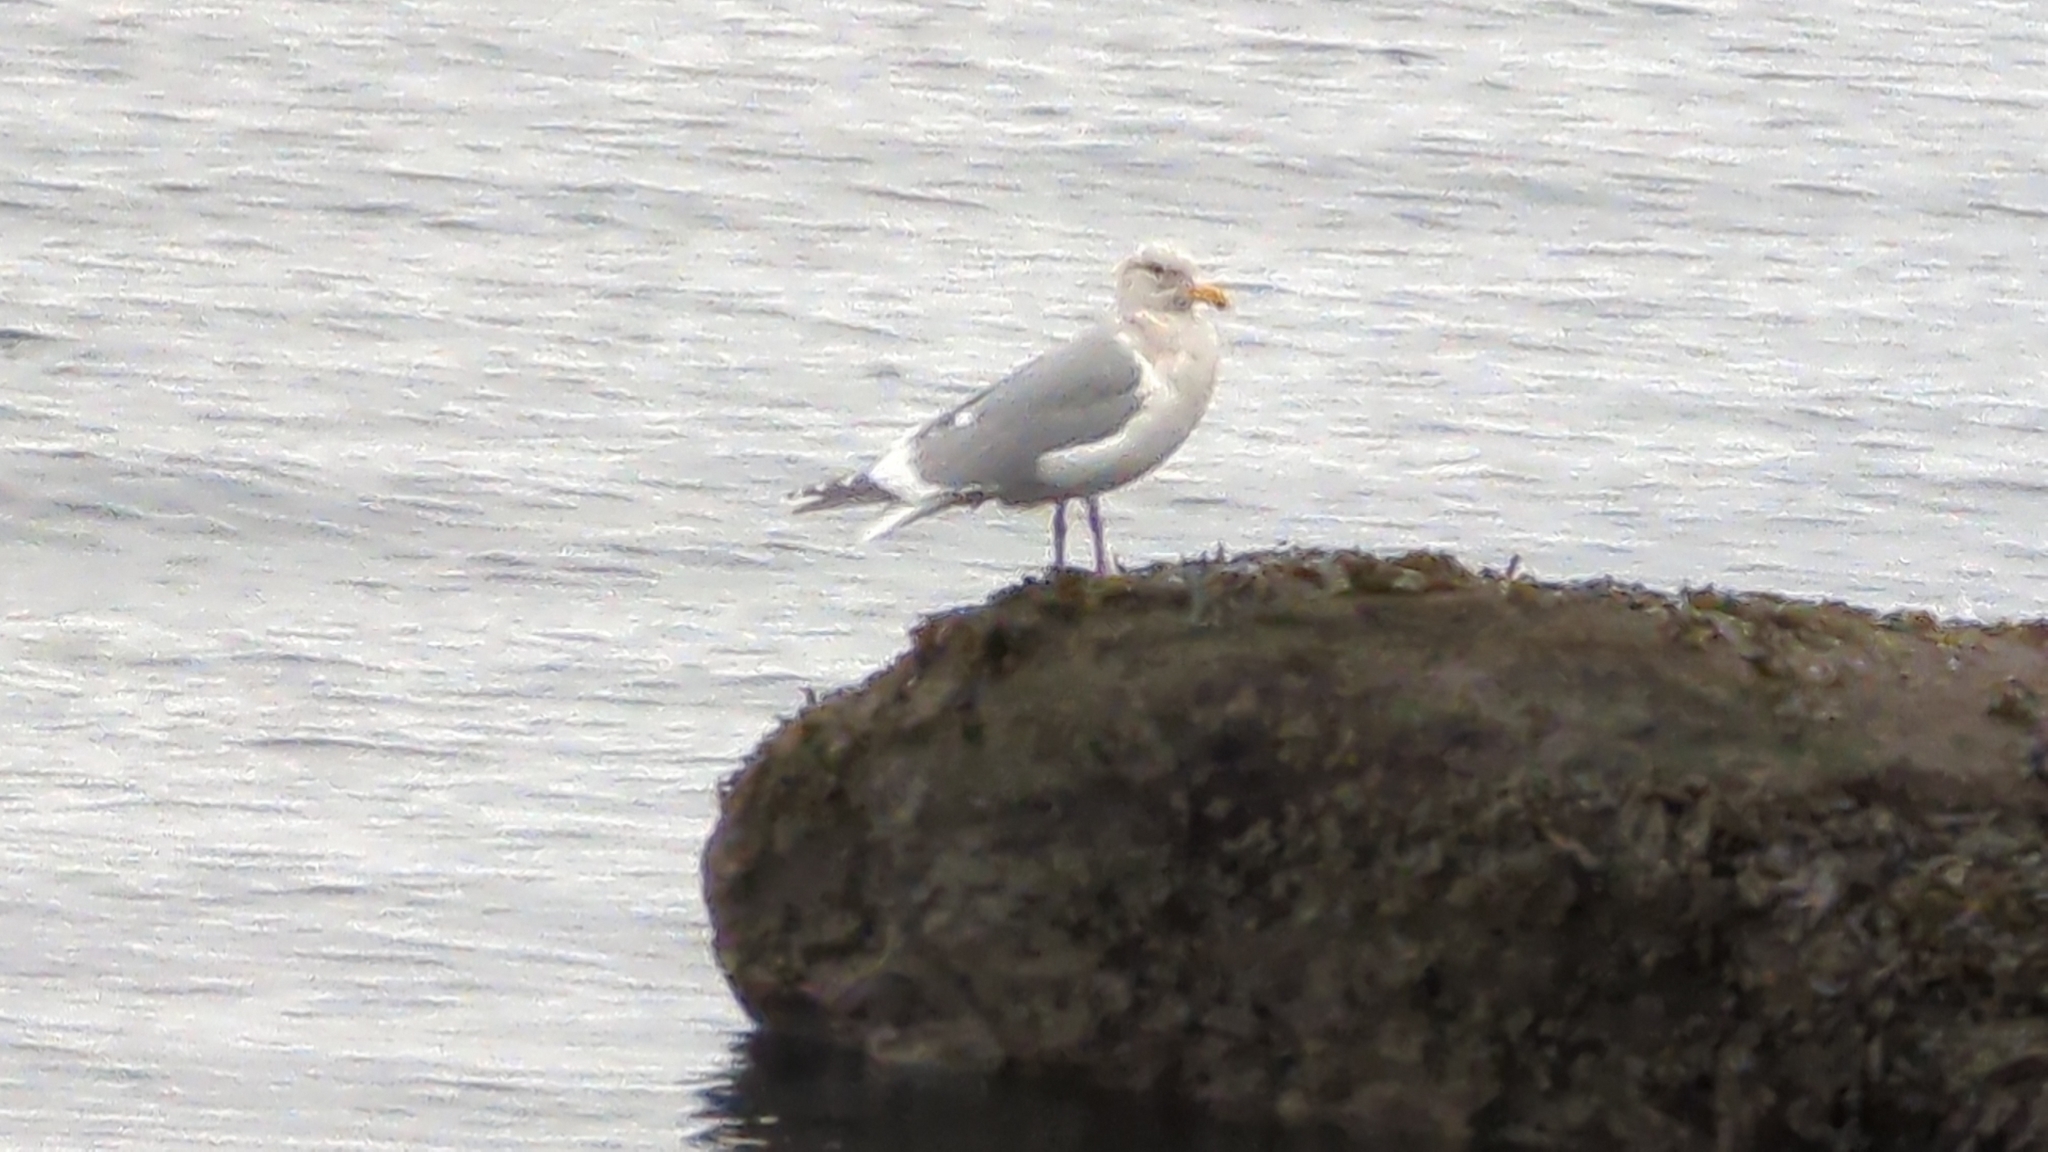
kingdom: Animalia
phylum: Chordata
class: Aves
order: Charadriiformes
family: Laridae
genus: Larus
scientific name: Larus glaucescens
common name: Glaucous-winged gull
